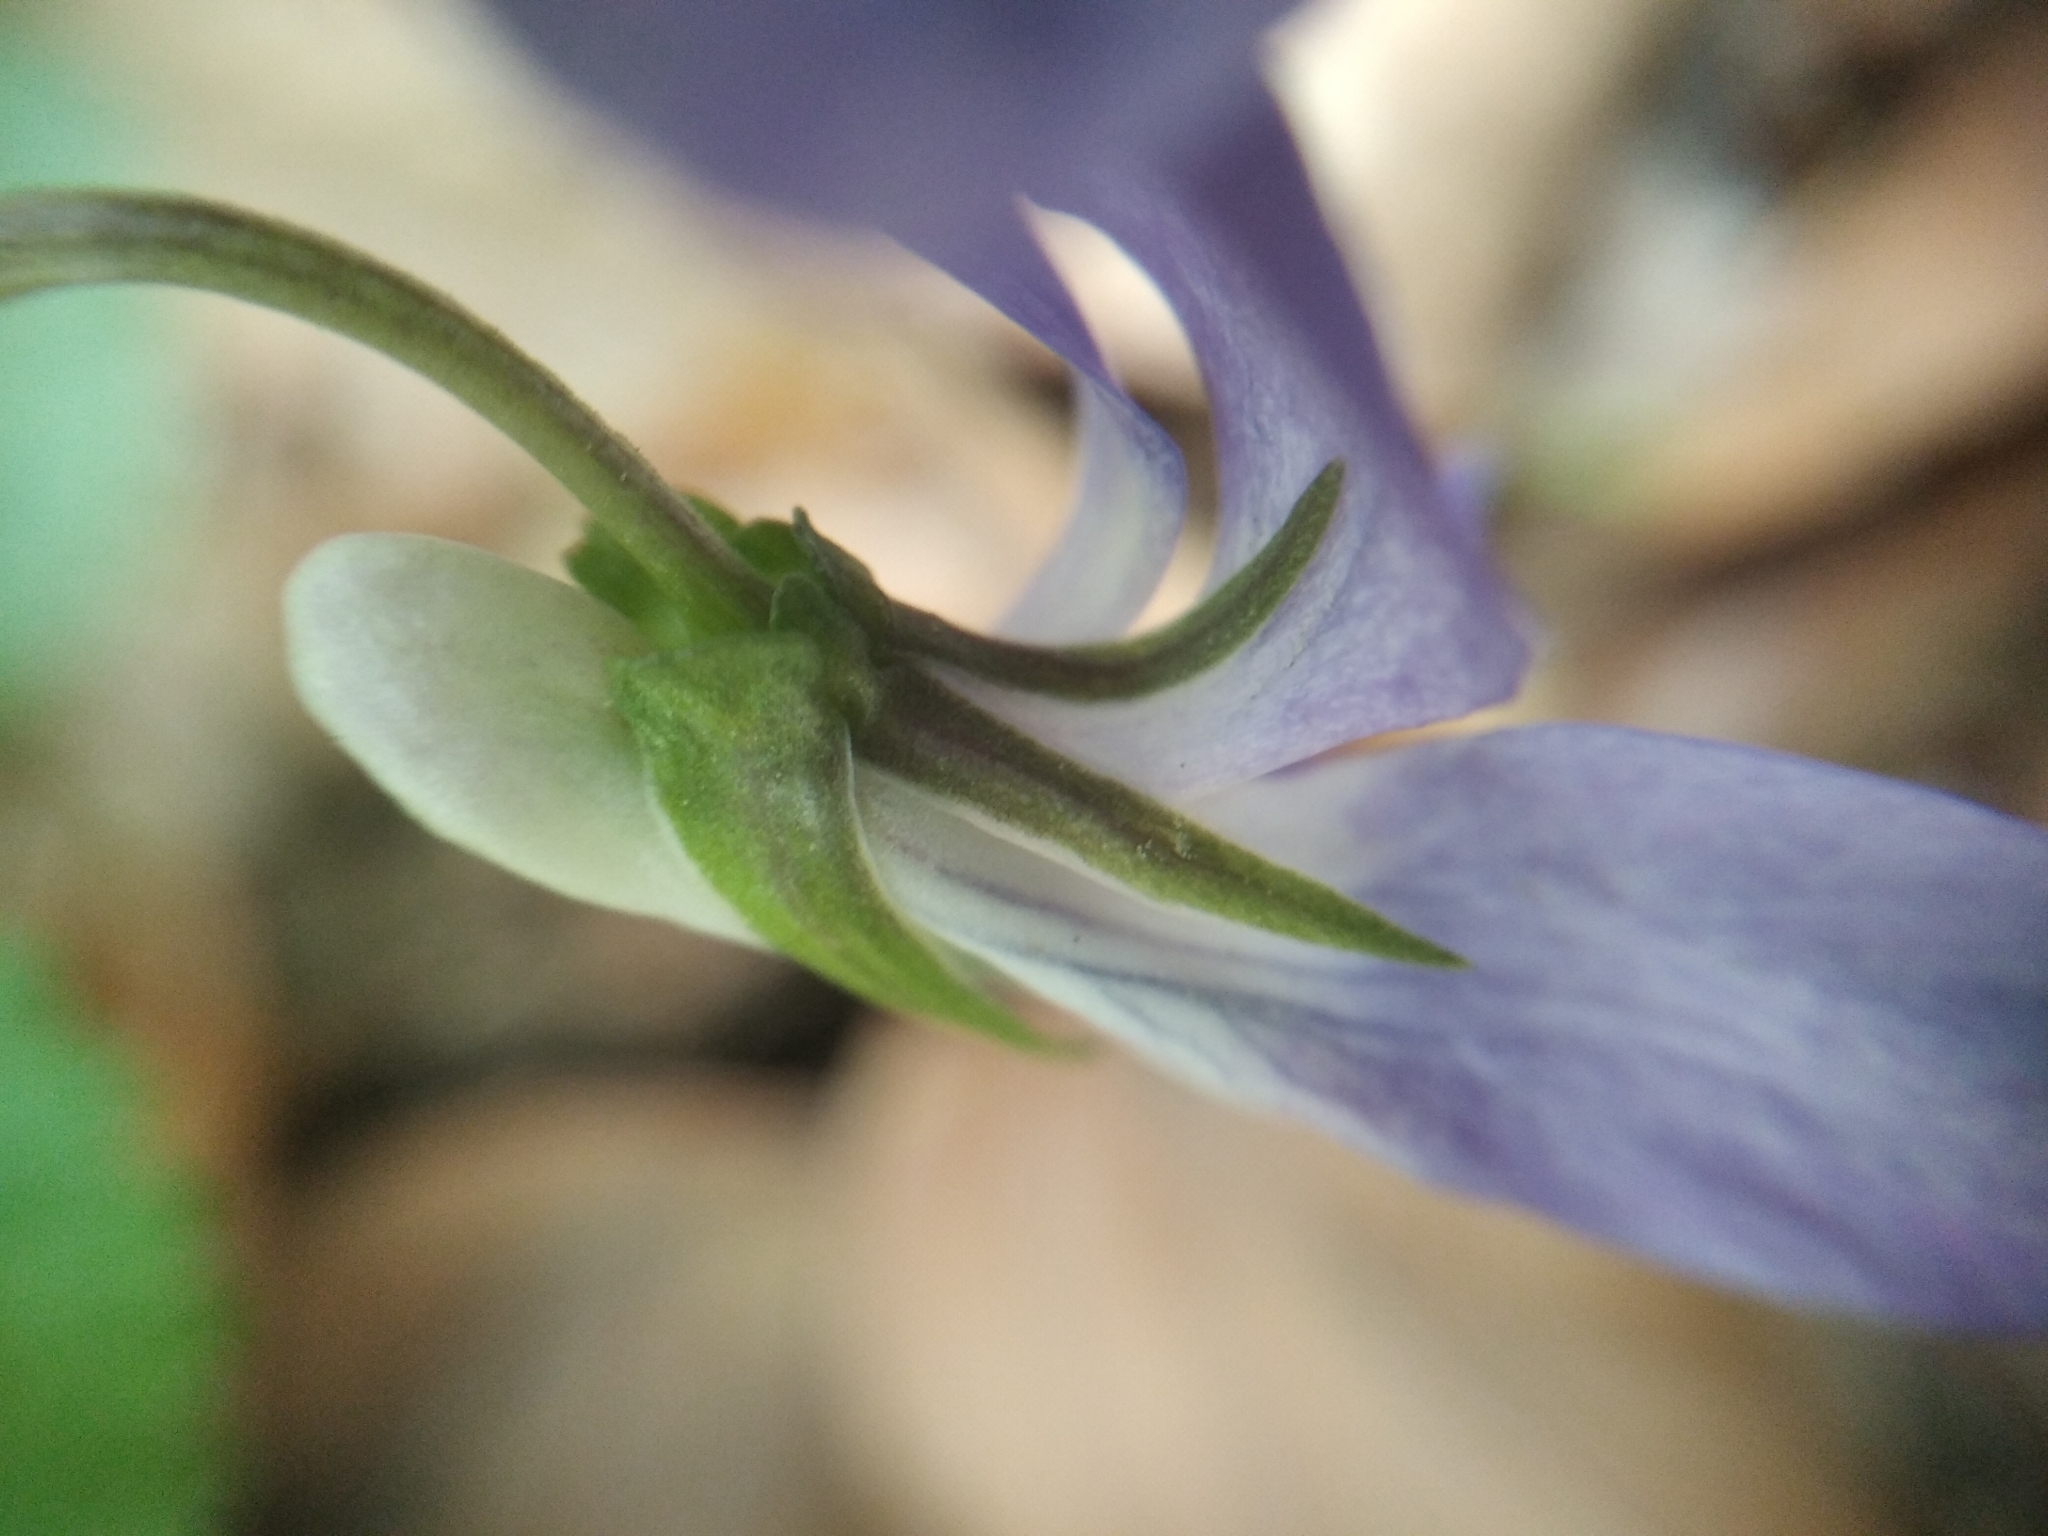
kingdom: Plantae
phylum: Tracheophyta
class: Magnoliopsida
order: Malpighiales
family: Violaceae
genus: Viola
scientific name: Viola riviniana
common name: Common dog-violet
